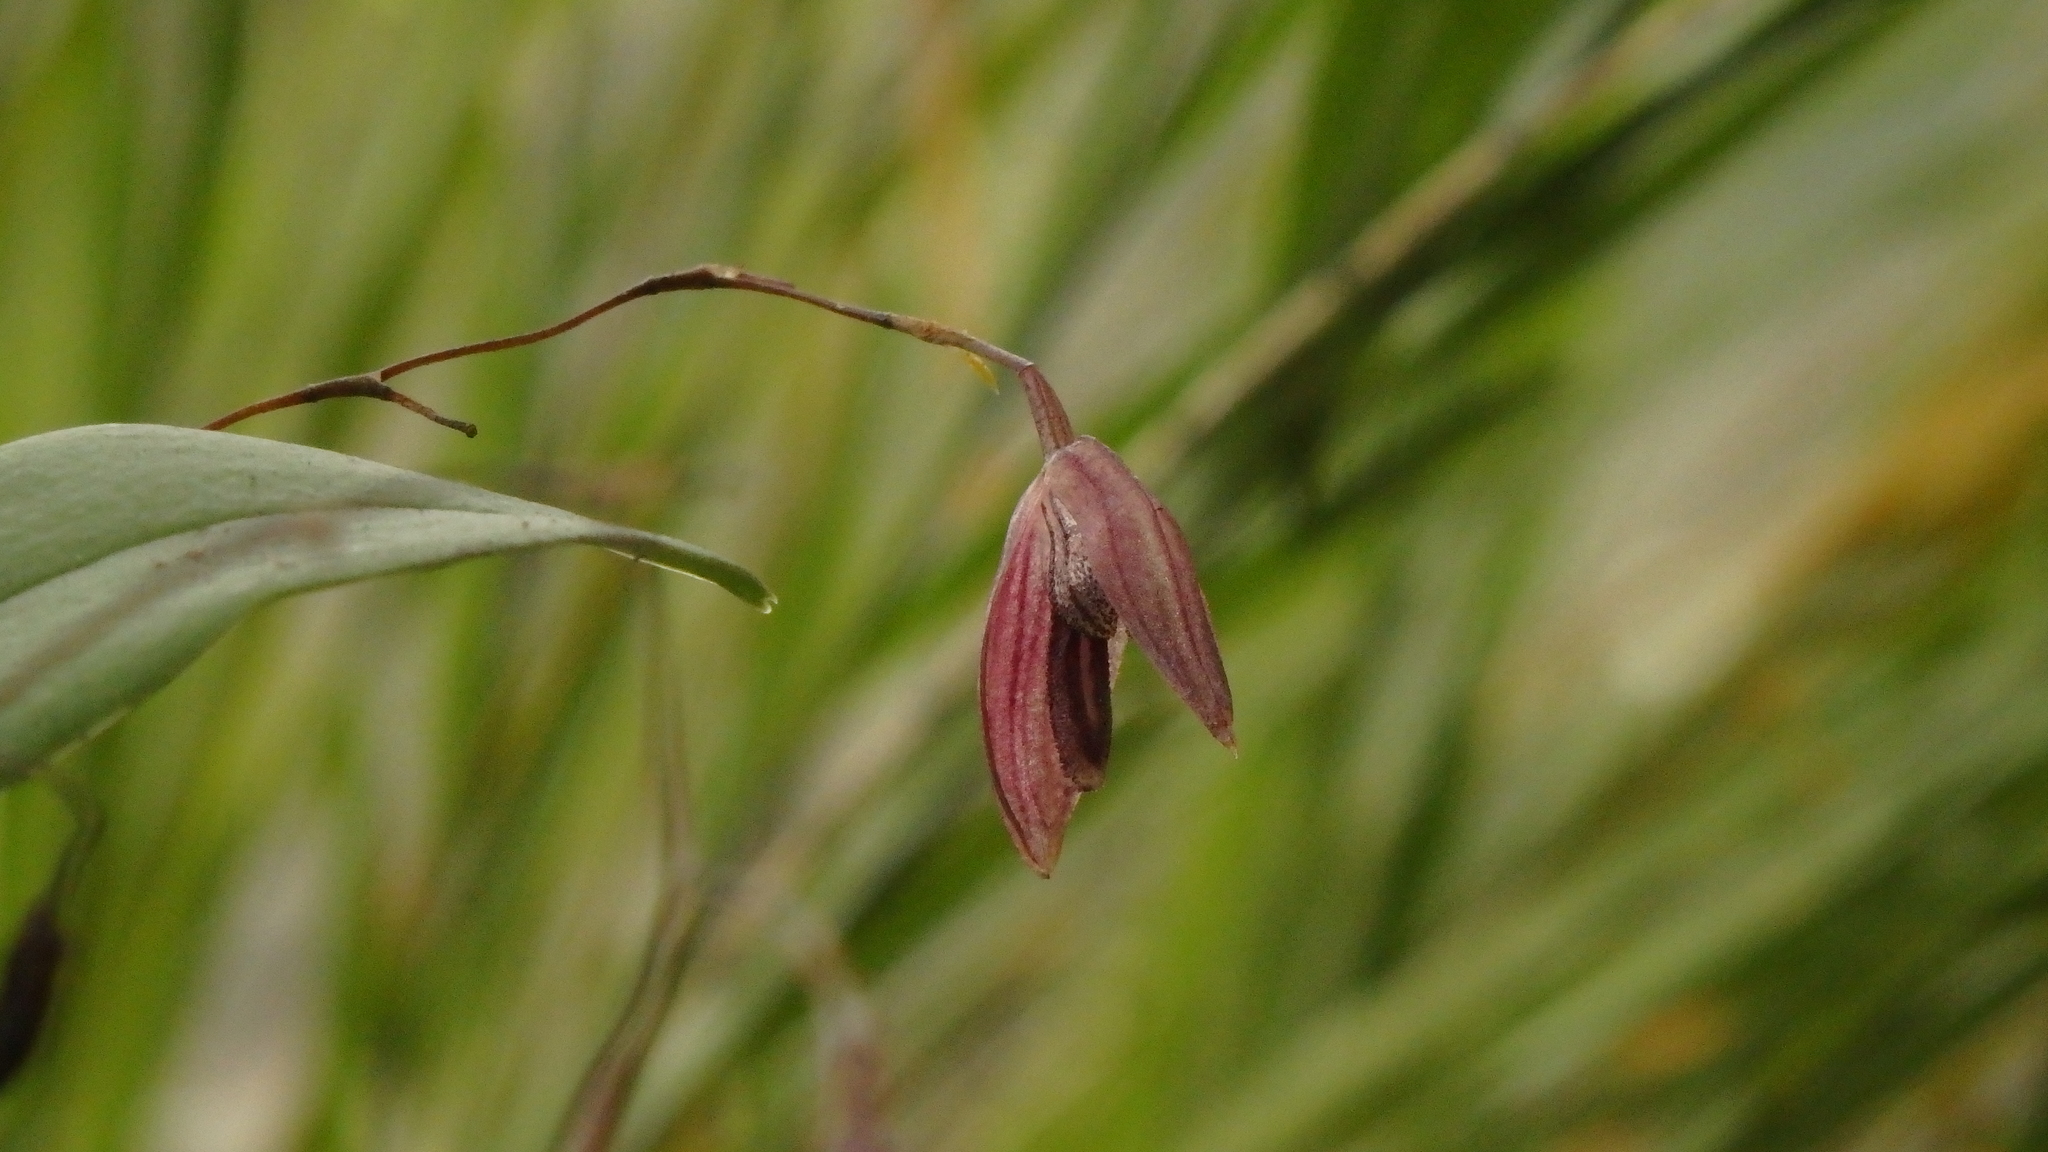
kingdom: Plantae
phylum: Tracheophyta
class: Liliopsida
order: Asparagales
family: Orchidaceae
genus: Stelis
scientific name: Stelis pachyglossa
